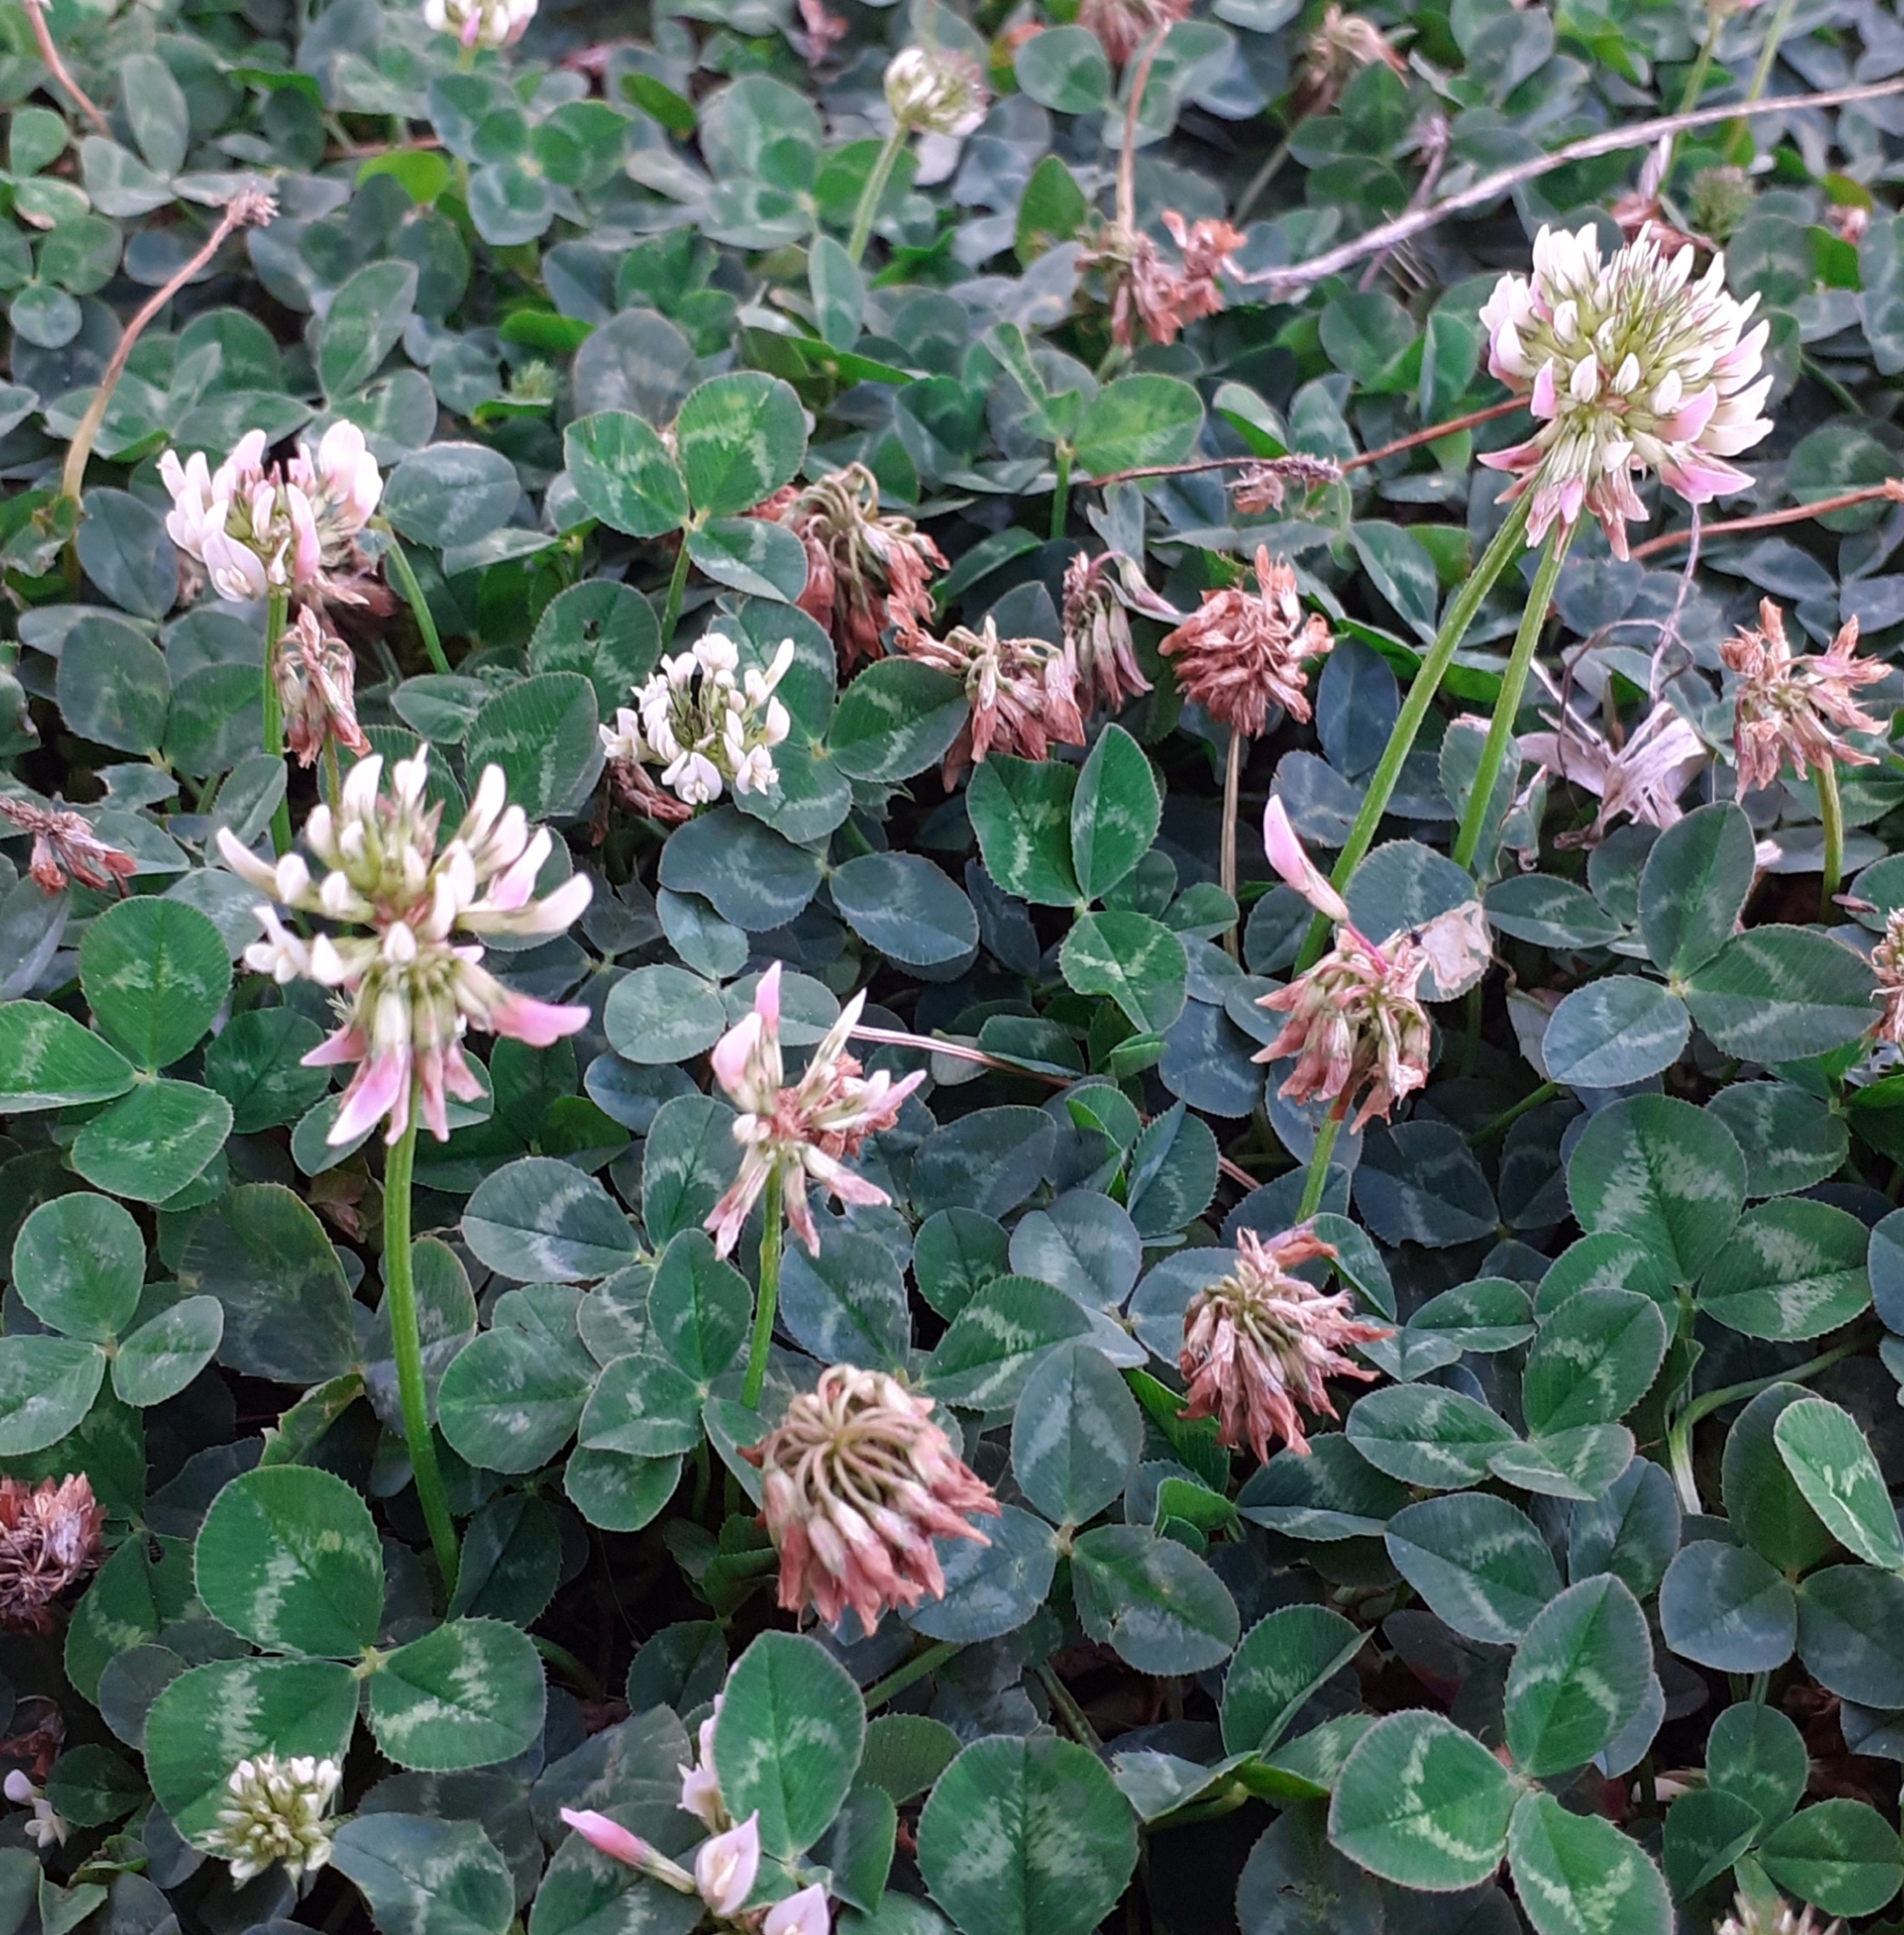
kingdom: Plantae
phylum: Tracheophyta
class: Magnoliopsida
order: Fabales
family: Fabaceae
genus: Trifolium
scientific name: Trifolium repens
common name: White clover
